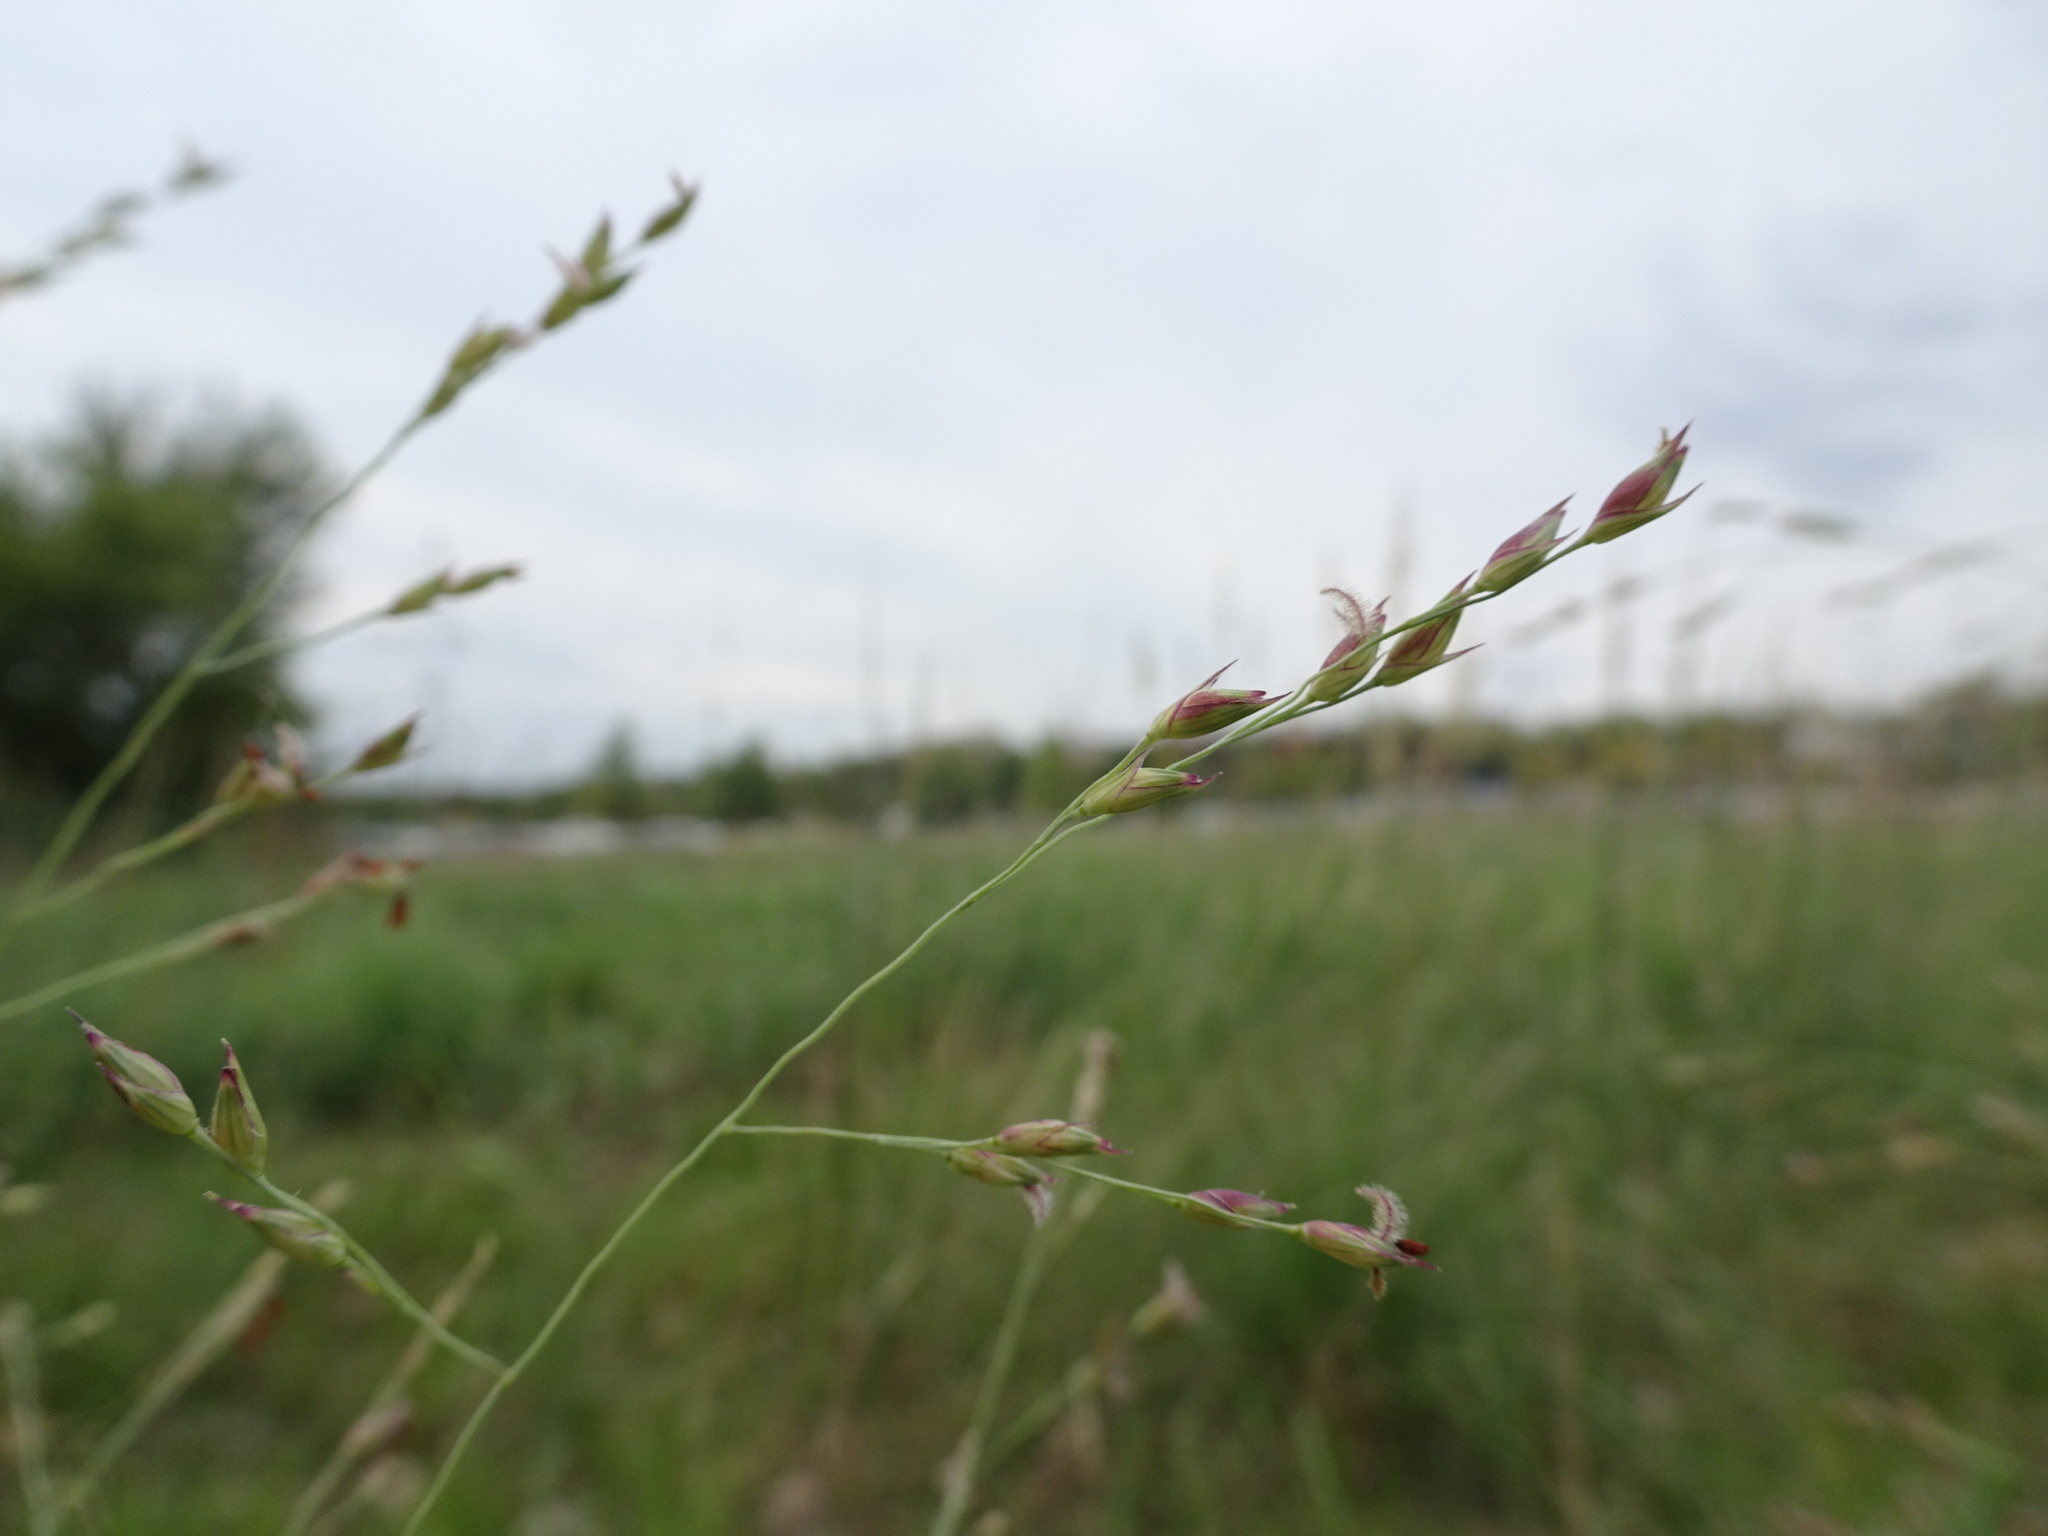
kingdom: Plantae
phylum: Tracheophyta
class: Liliopsida
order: Poales
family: Poaceae
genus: Panicum
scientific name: Panicum virgatum
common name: Switchgrass
